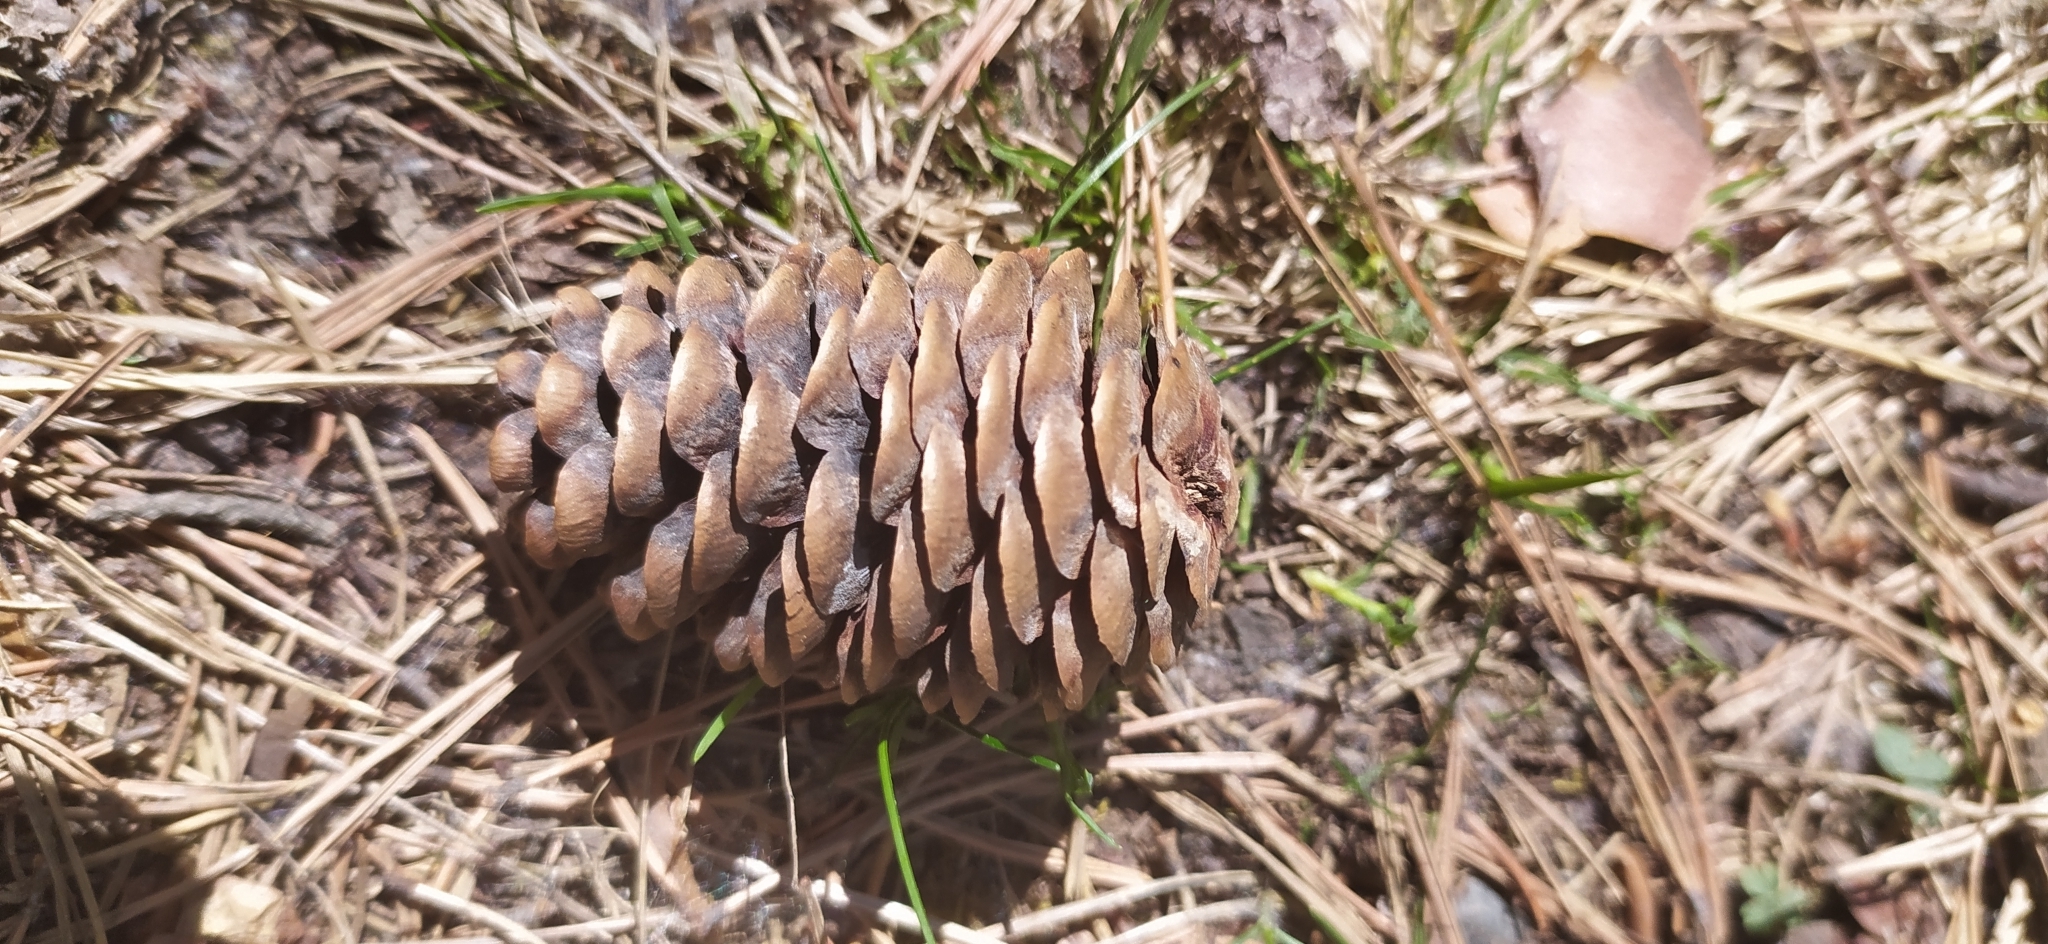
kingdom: Plantae
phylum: Tracheophyta
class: Pinopsida
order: Pinales
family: Pinaceae
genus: Picea
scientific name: Picea obovata
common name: Siberian spruce
